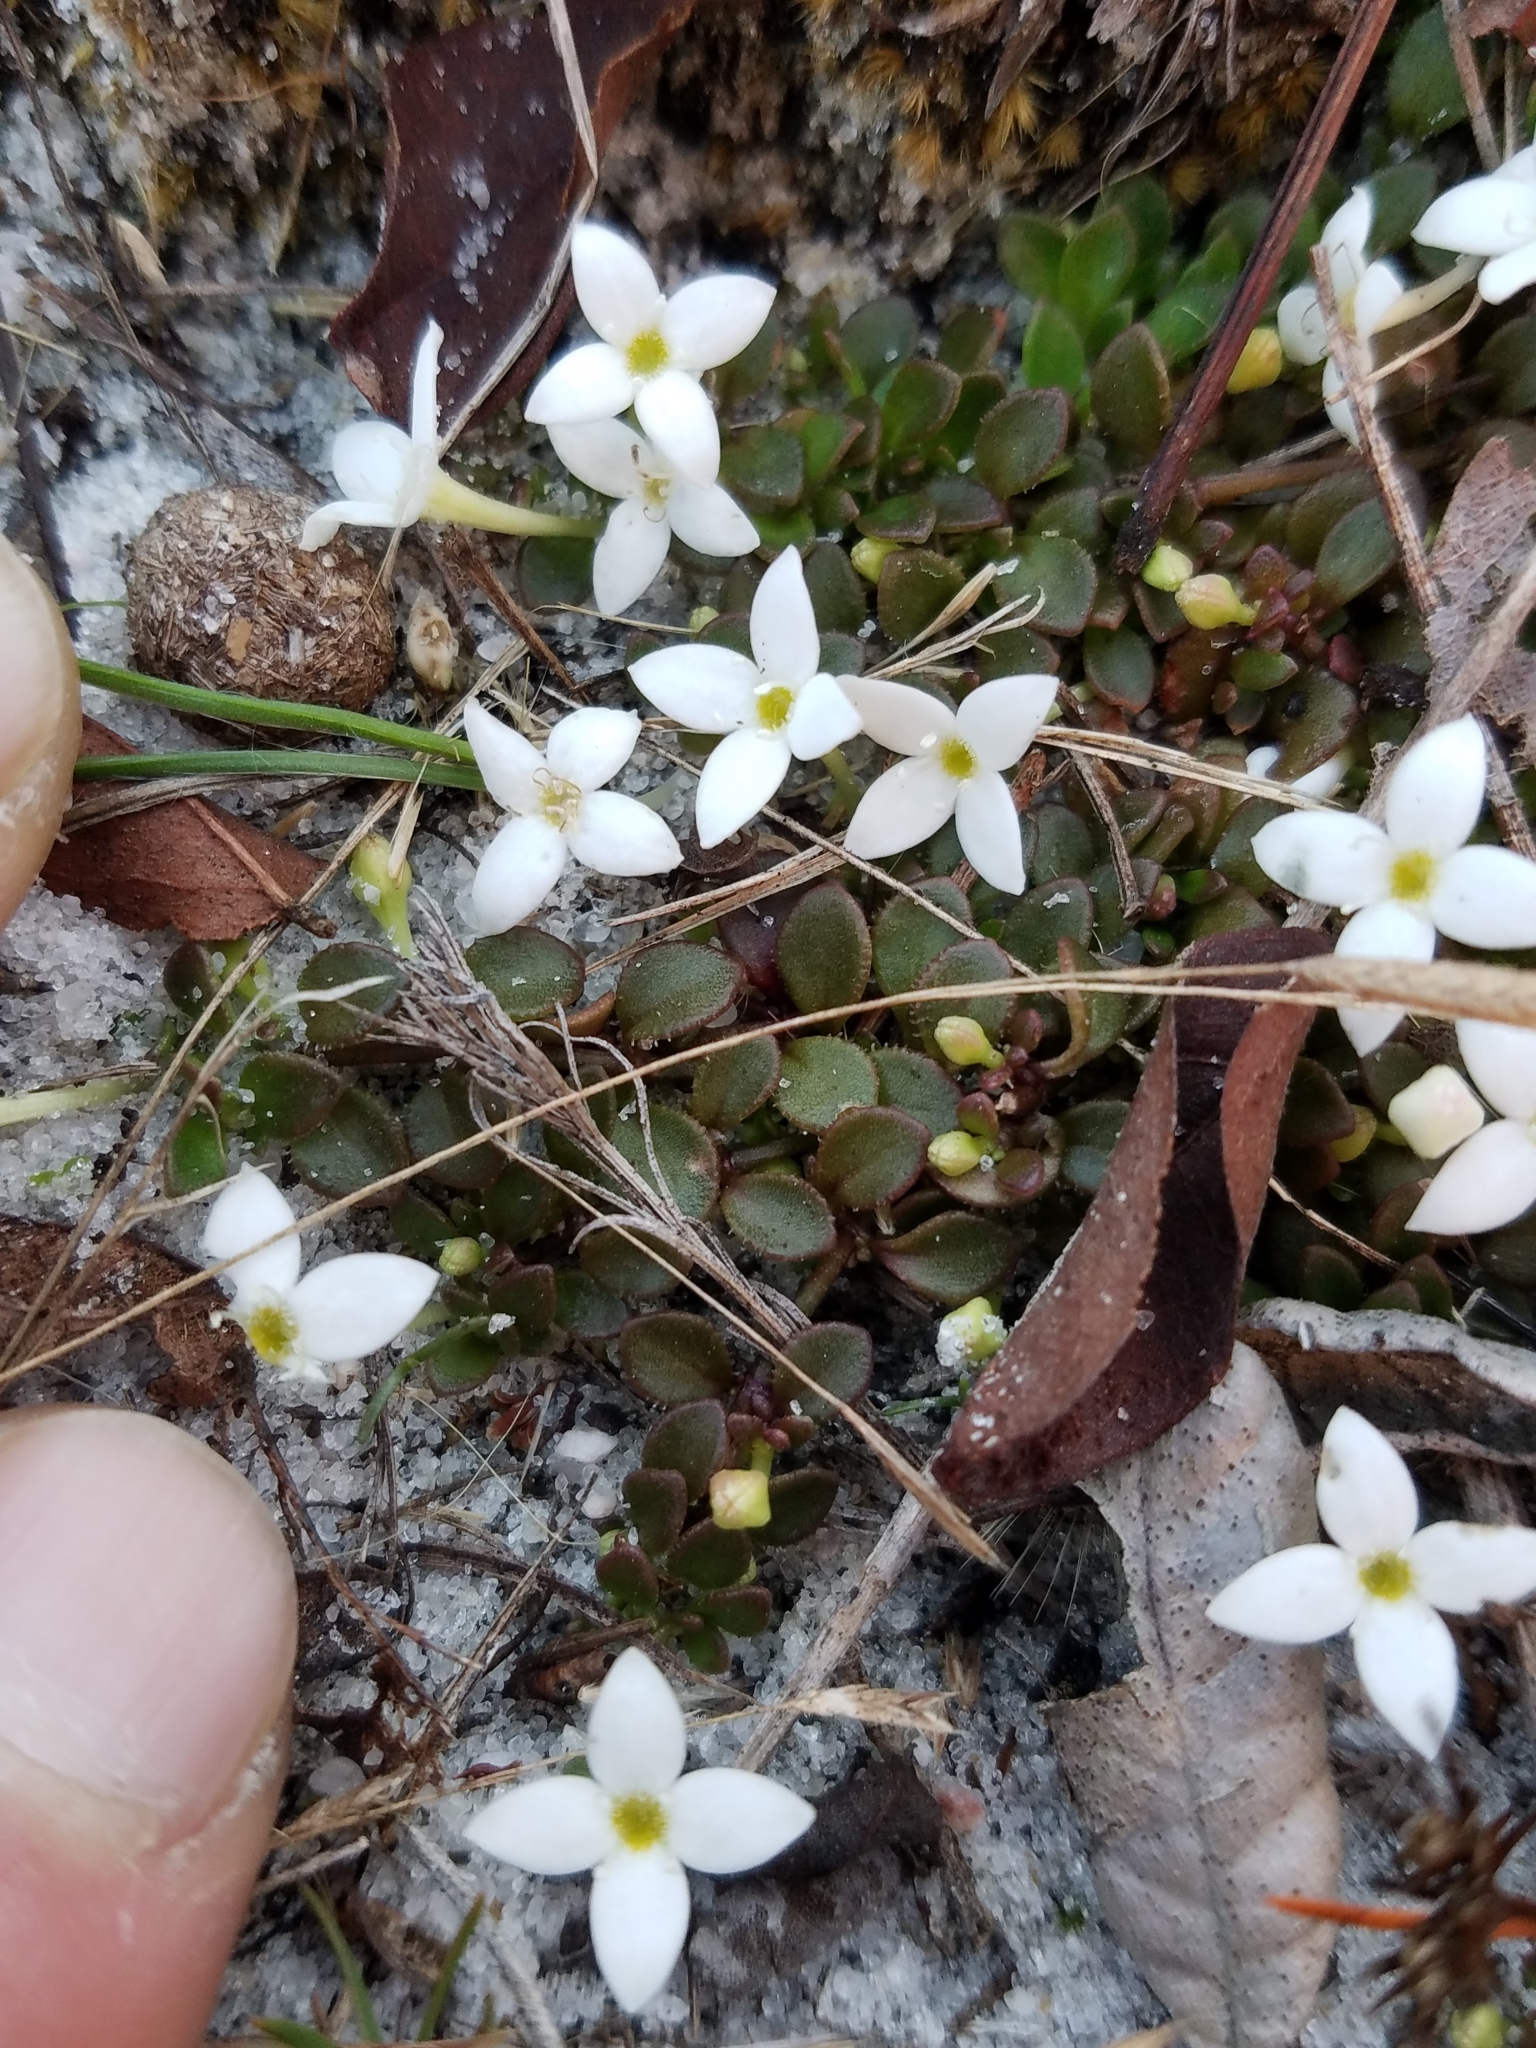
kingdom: Plantae
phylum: Tracheophyta
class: Magnoliopsida
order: Gentianales
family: Rubiaceae
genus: Houstonia
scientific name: Houstonia procumbens
